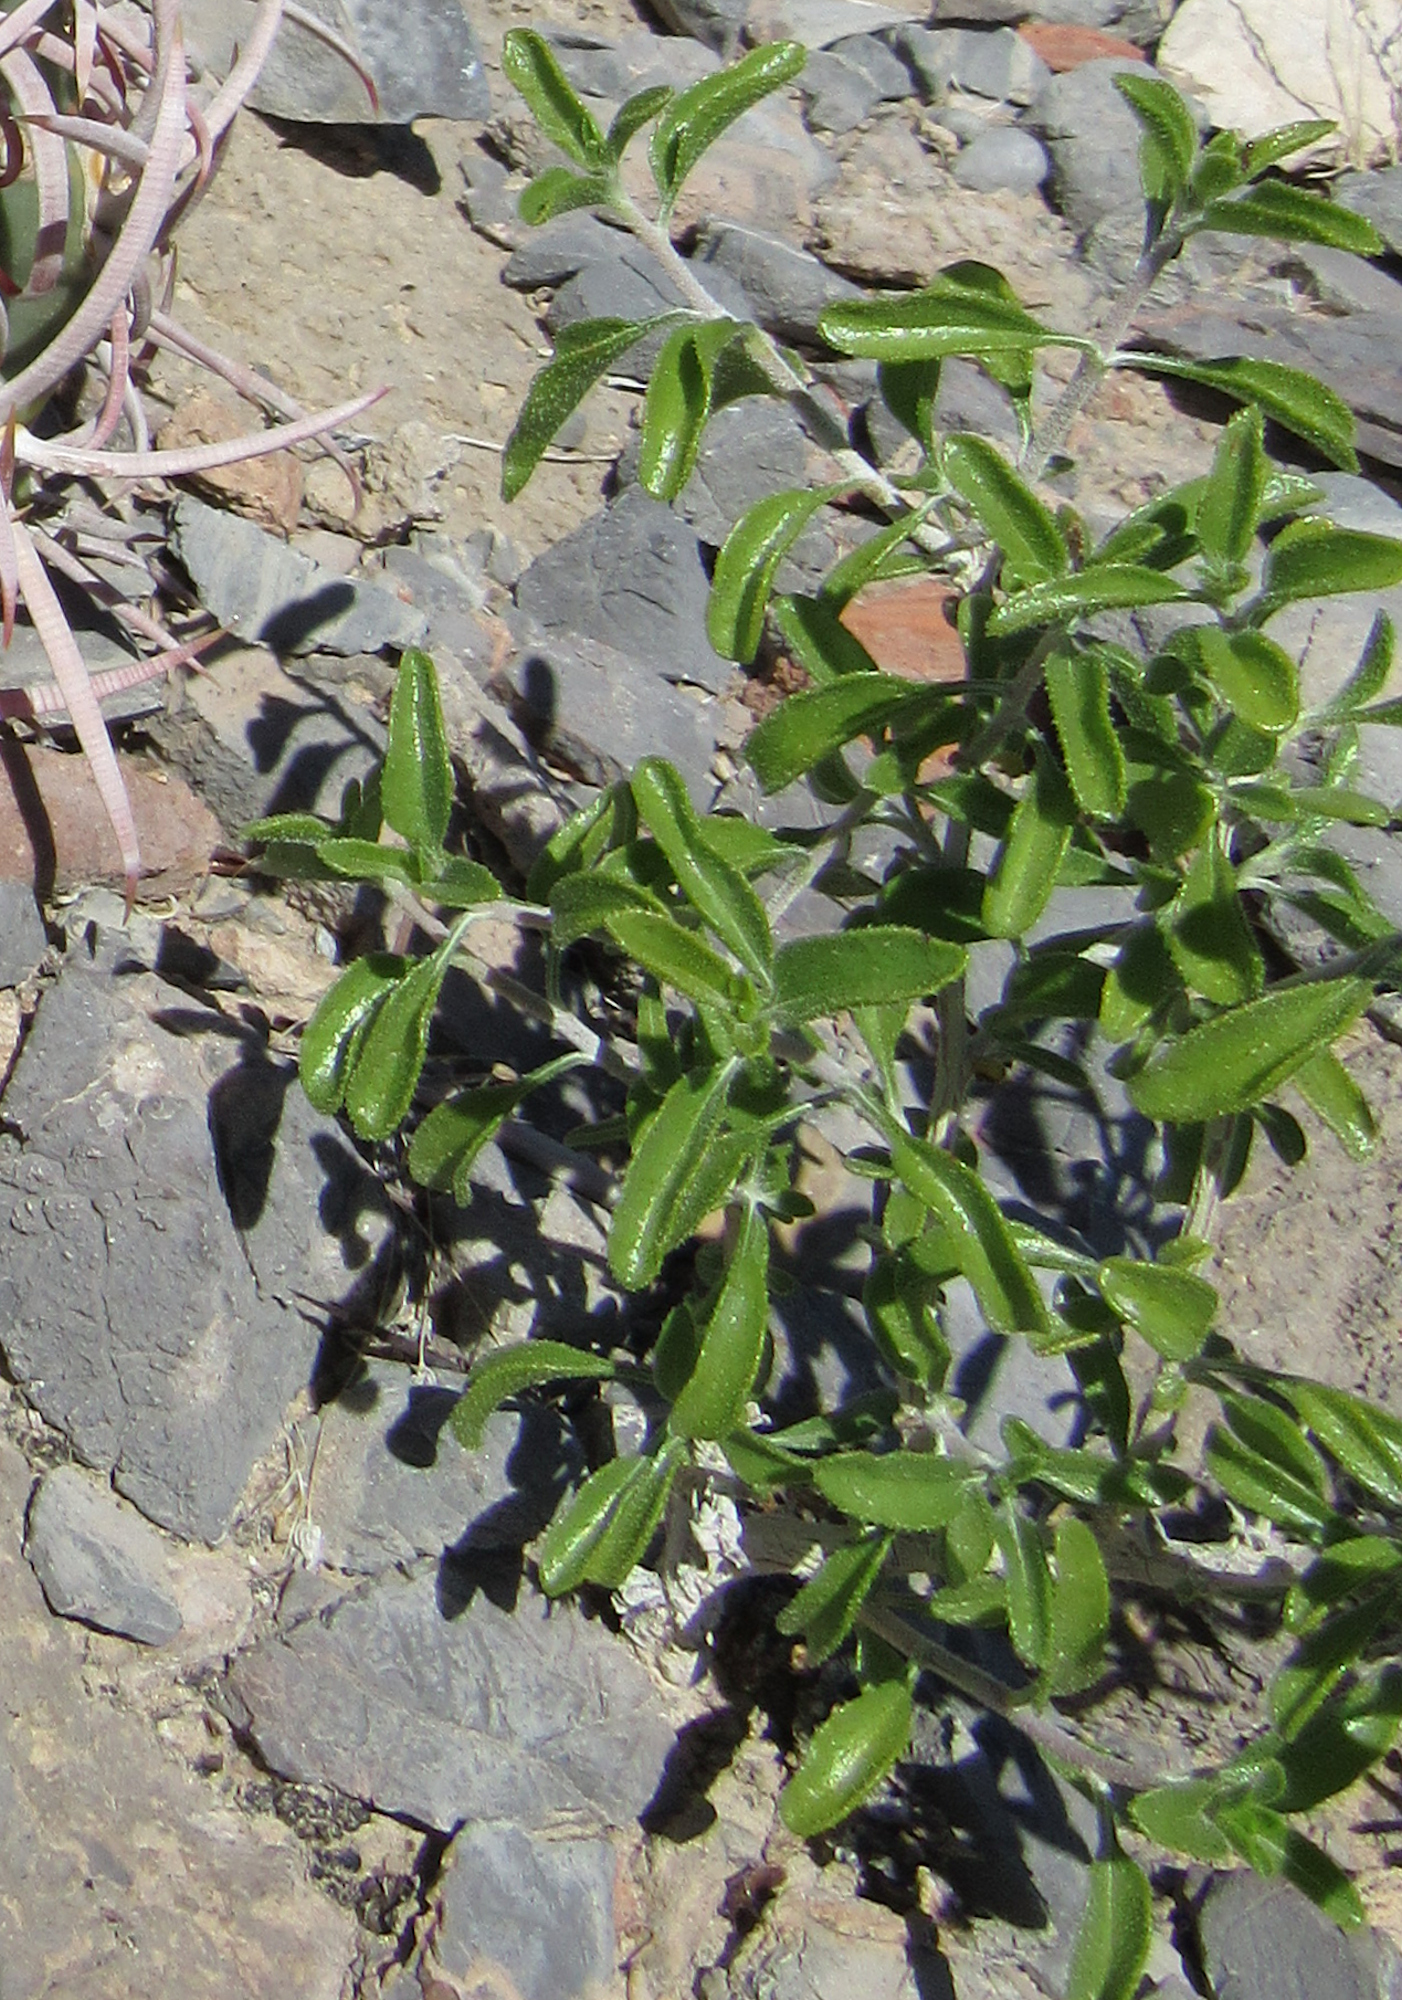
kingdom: Plantae
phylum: Tracheophyta
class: Magnoliopsida
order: Asterales
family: Asteraceae
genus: Encelia
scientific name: Encelia frutescens
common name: Bush encelia
